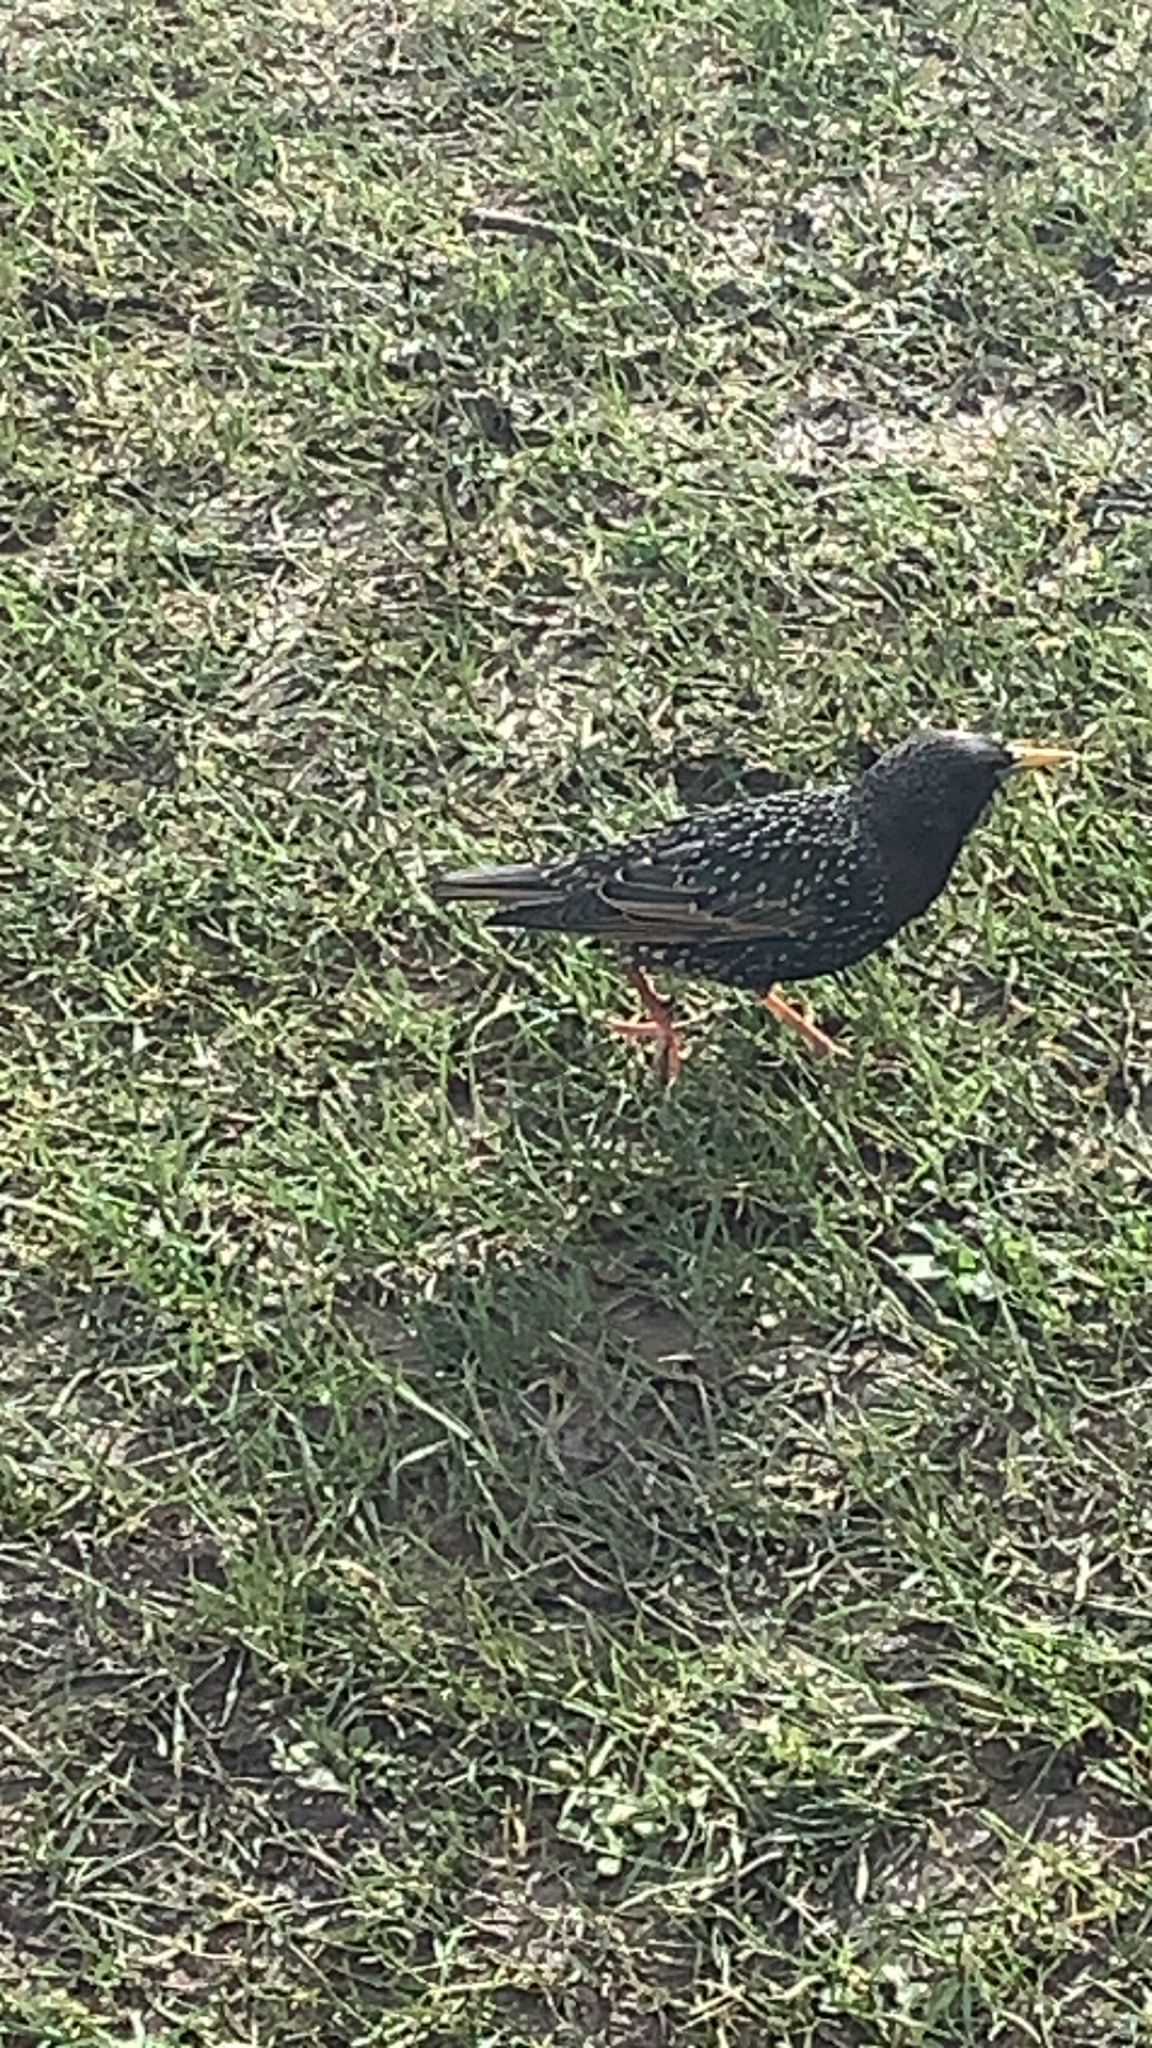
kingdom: Animalia
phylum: Chordata
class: Aves
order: Passeriformes
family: Sturnidae
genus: Sturnus
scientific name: Sturnus vulgaris
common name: Common starling
